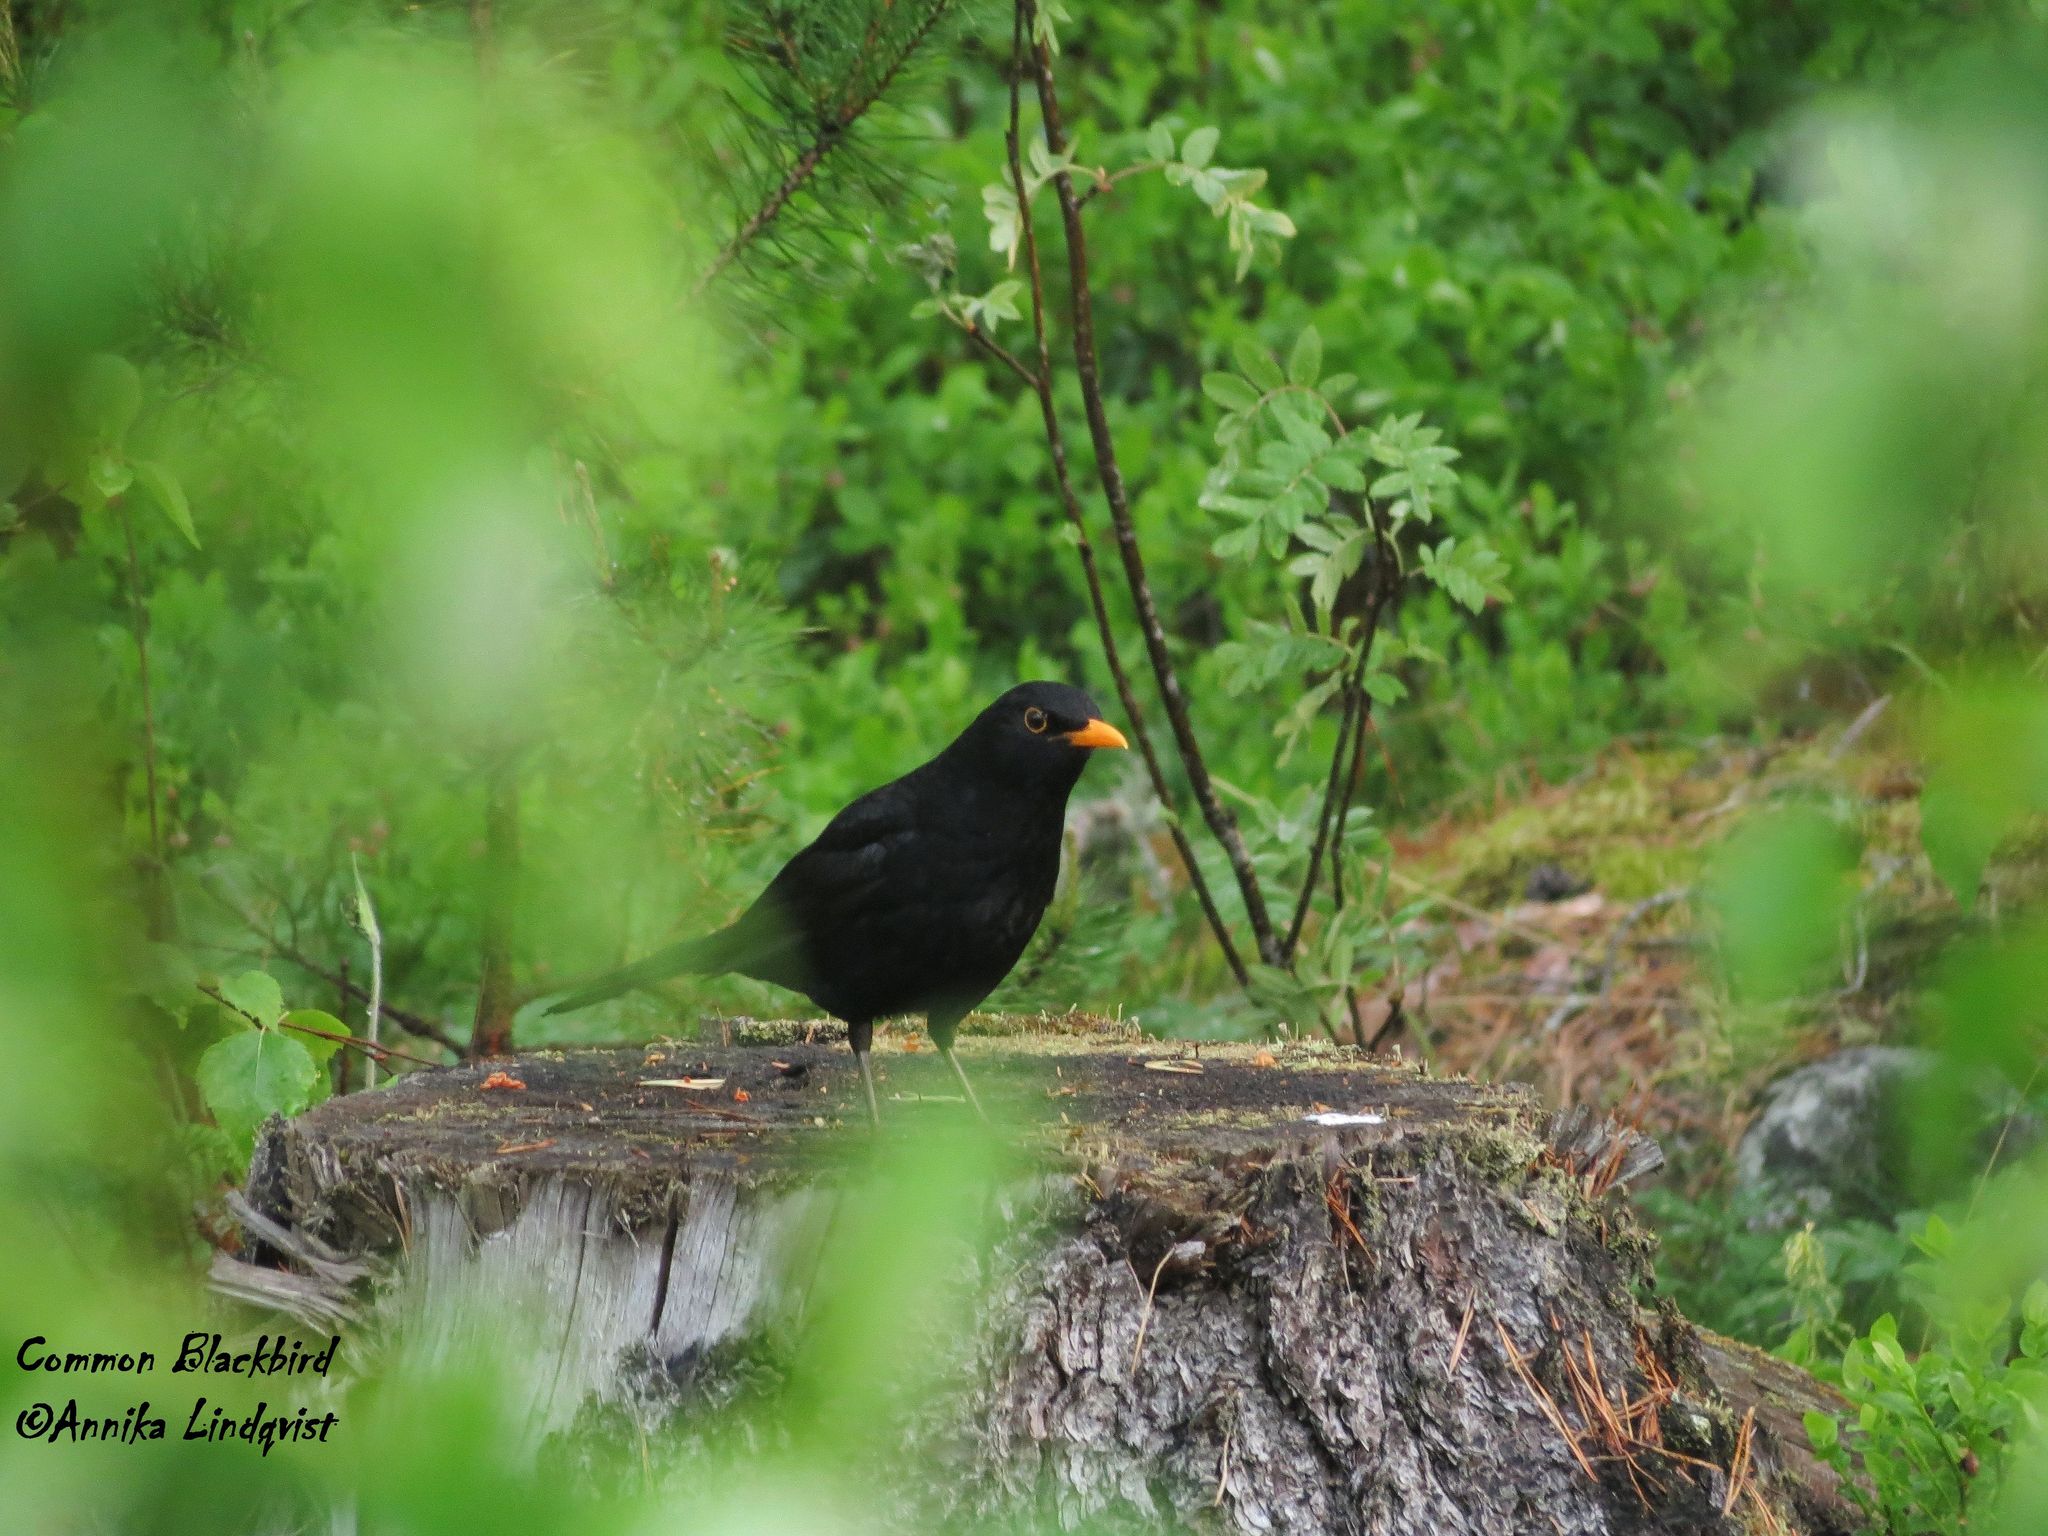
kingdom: Animalia
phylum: Chordata
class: Aves
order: Passeriformes
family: Turdidae
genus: Turdus
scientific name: Turdus merula
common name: Common blackbird
